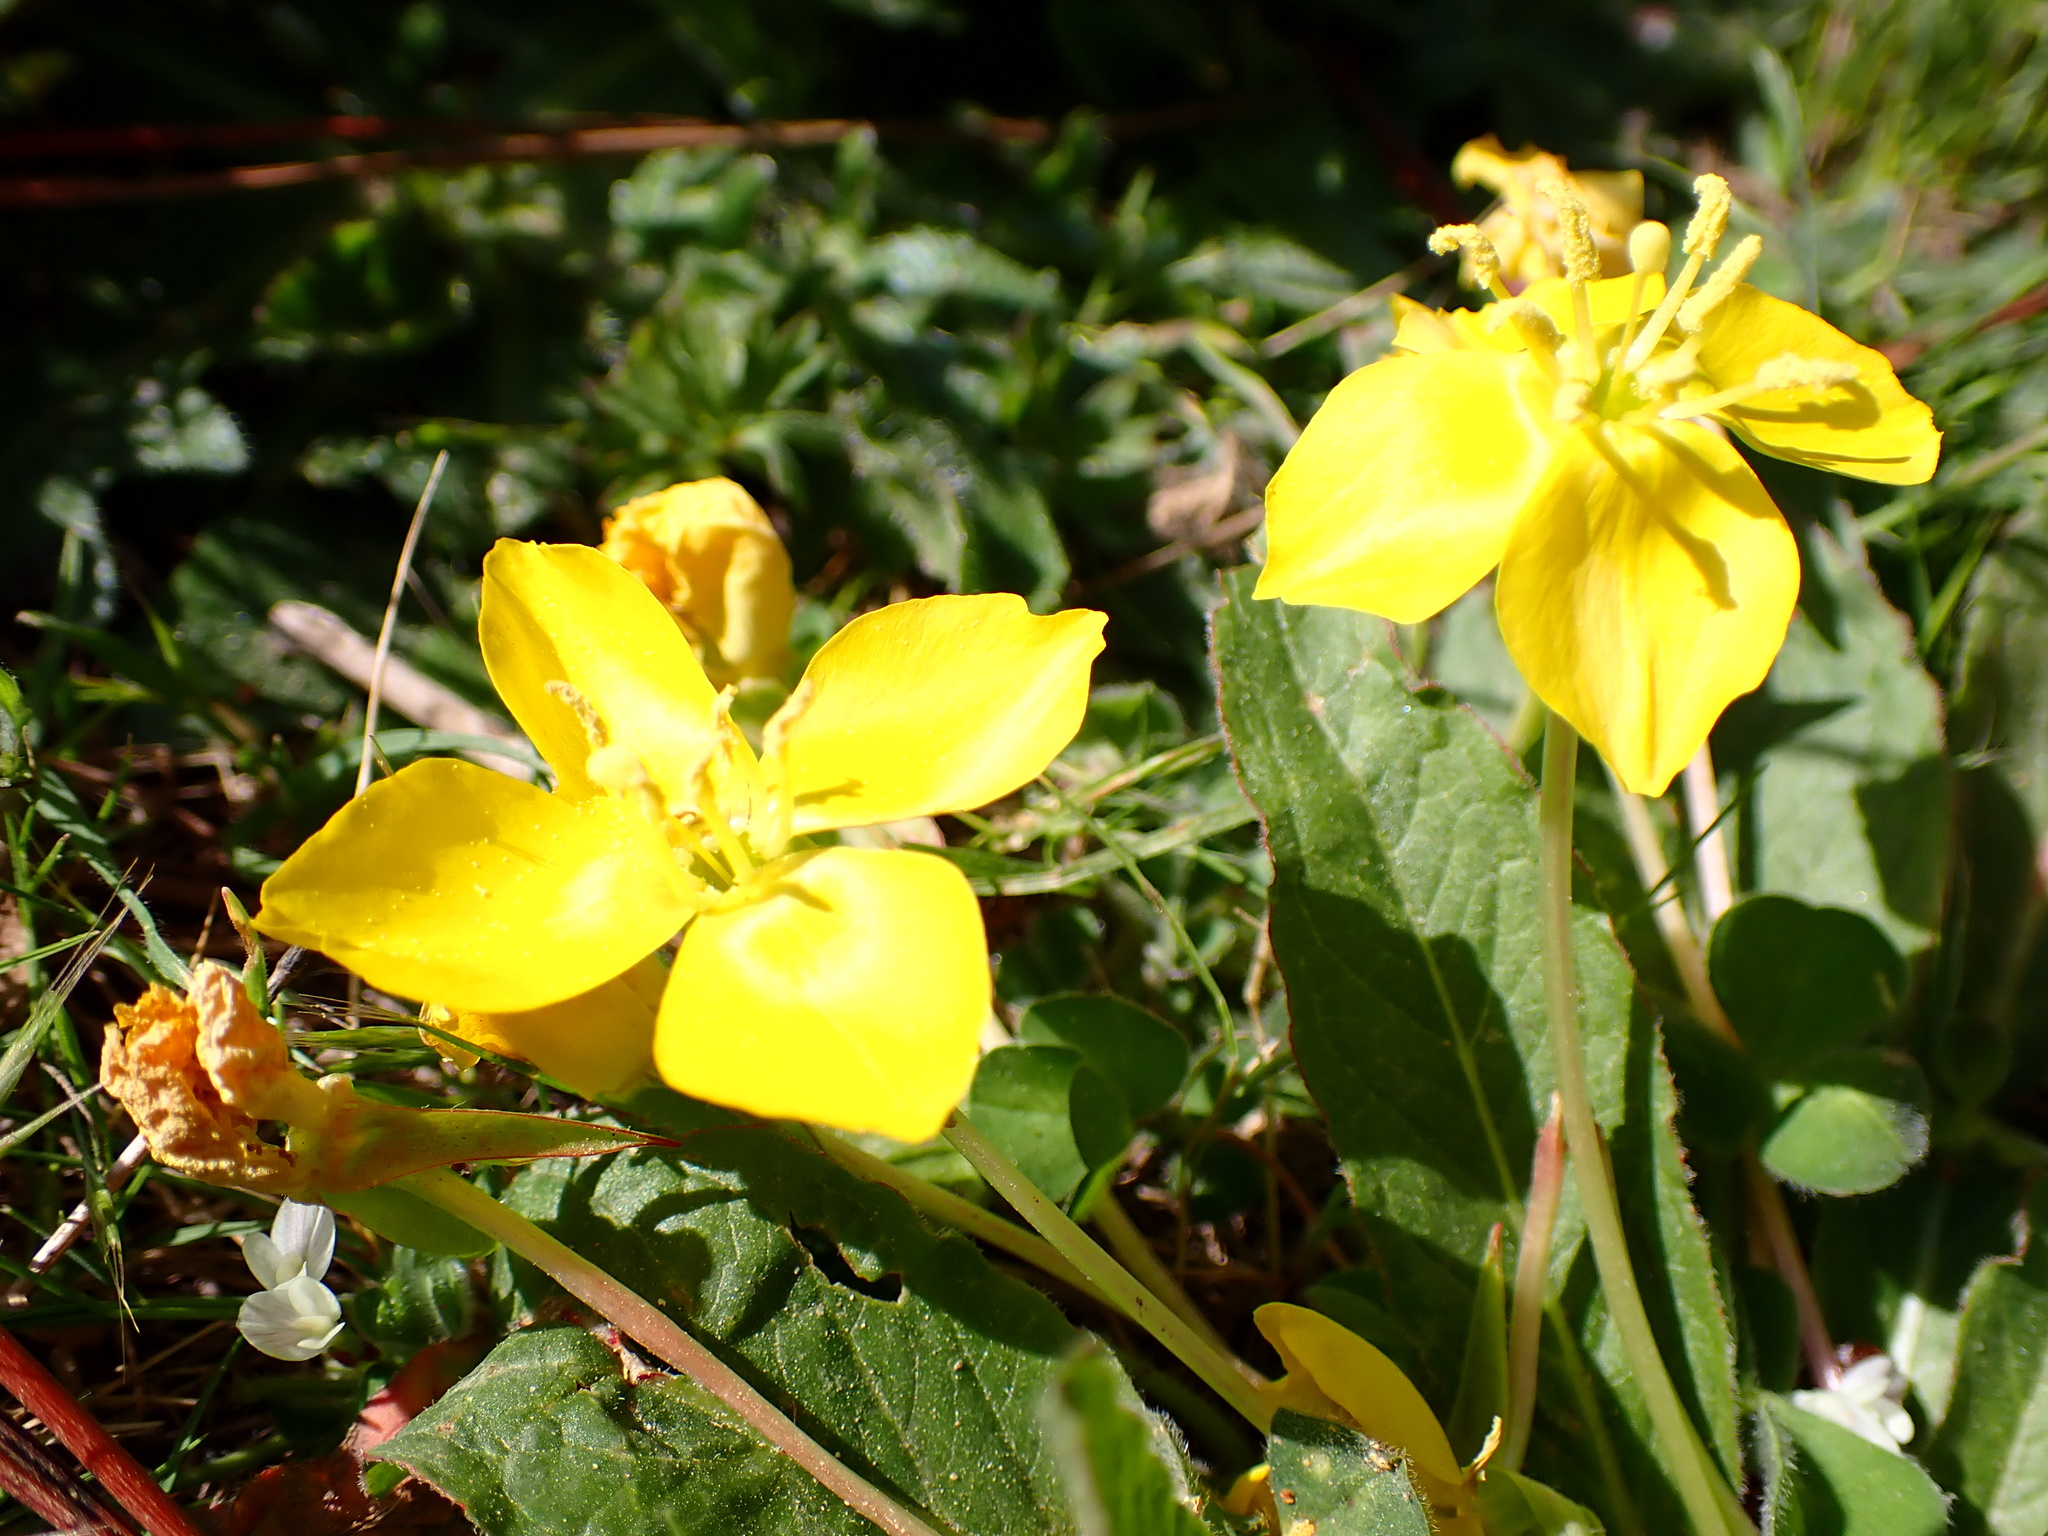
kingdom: Plantae
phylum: Tracheophyta
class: Magnoliopsida
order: Myrtales
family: Onagraceae
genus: Taraxia
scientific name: Taraxia ovata
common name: Goldeneggs
